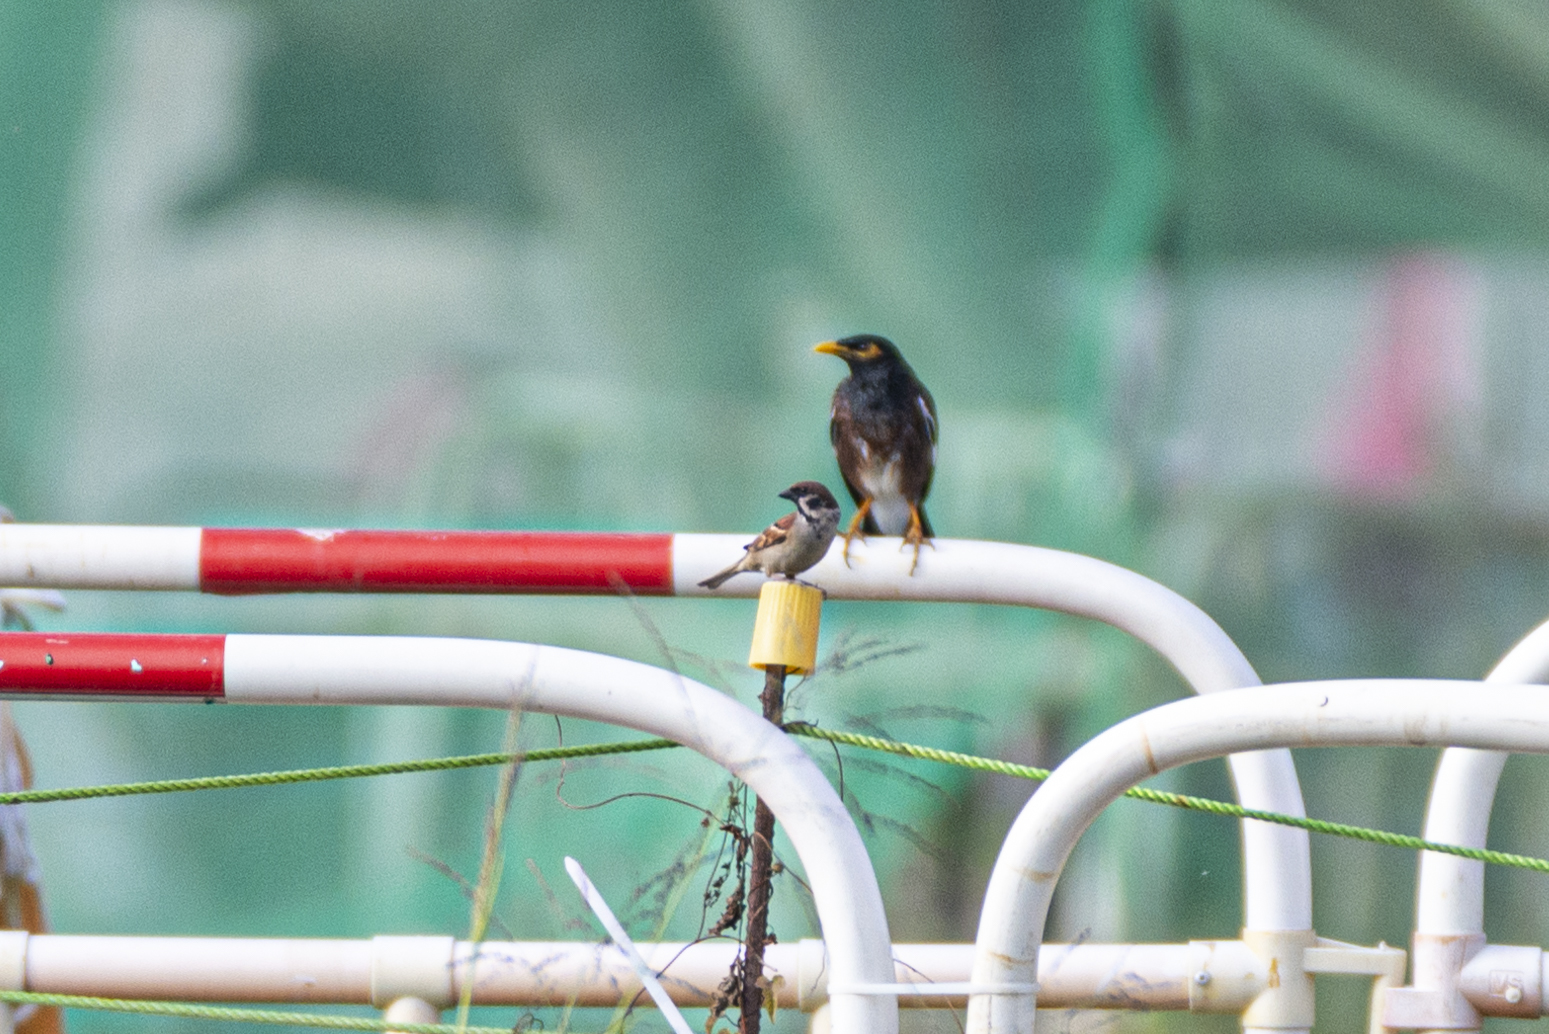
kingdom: Animalia
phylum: Chordata
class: Aves
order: Passeriformes
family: Sturnidae
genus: Acridotheres
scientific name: Acridotheres tristis
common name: Common myna
